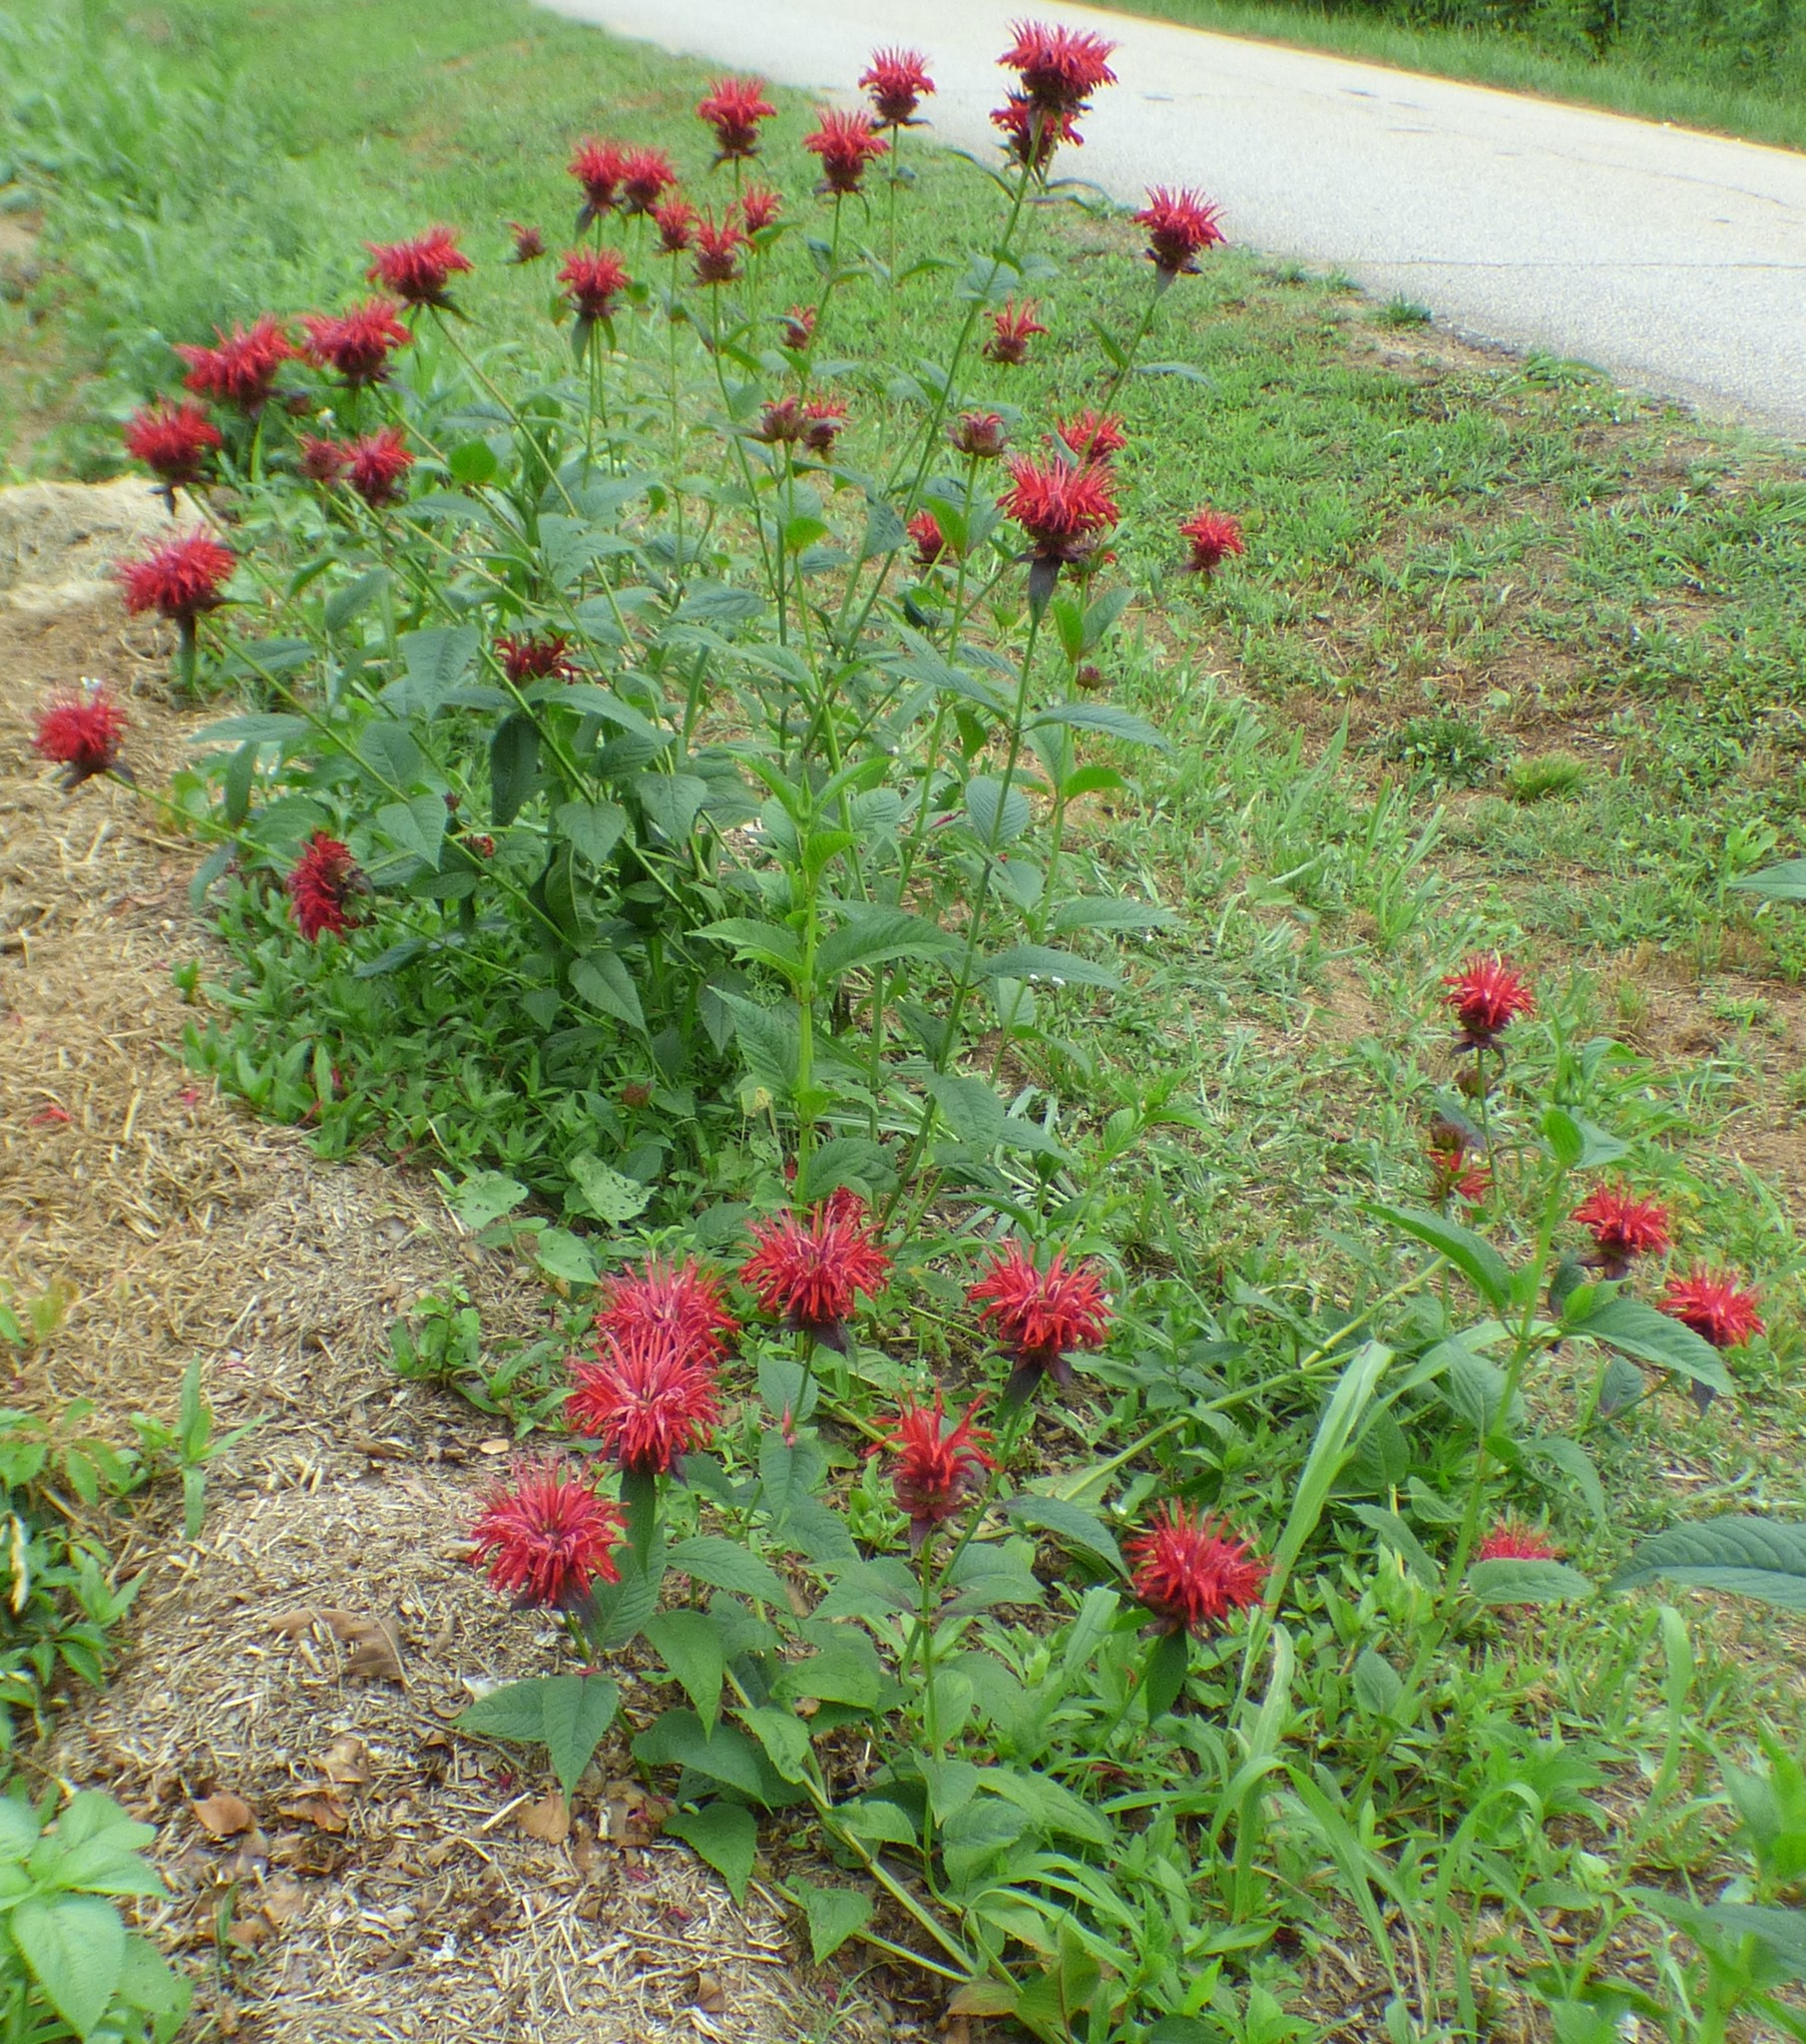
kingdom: Plantae
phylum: Tracheophyta
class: Magnoliopsida
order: Lamiales
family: Lamiaceae
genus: Monarda
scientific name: Monarda didyma
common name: Beebalm
